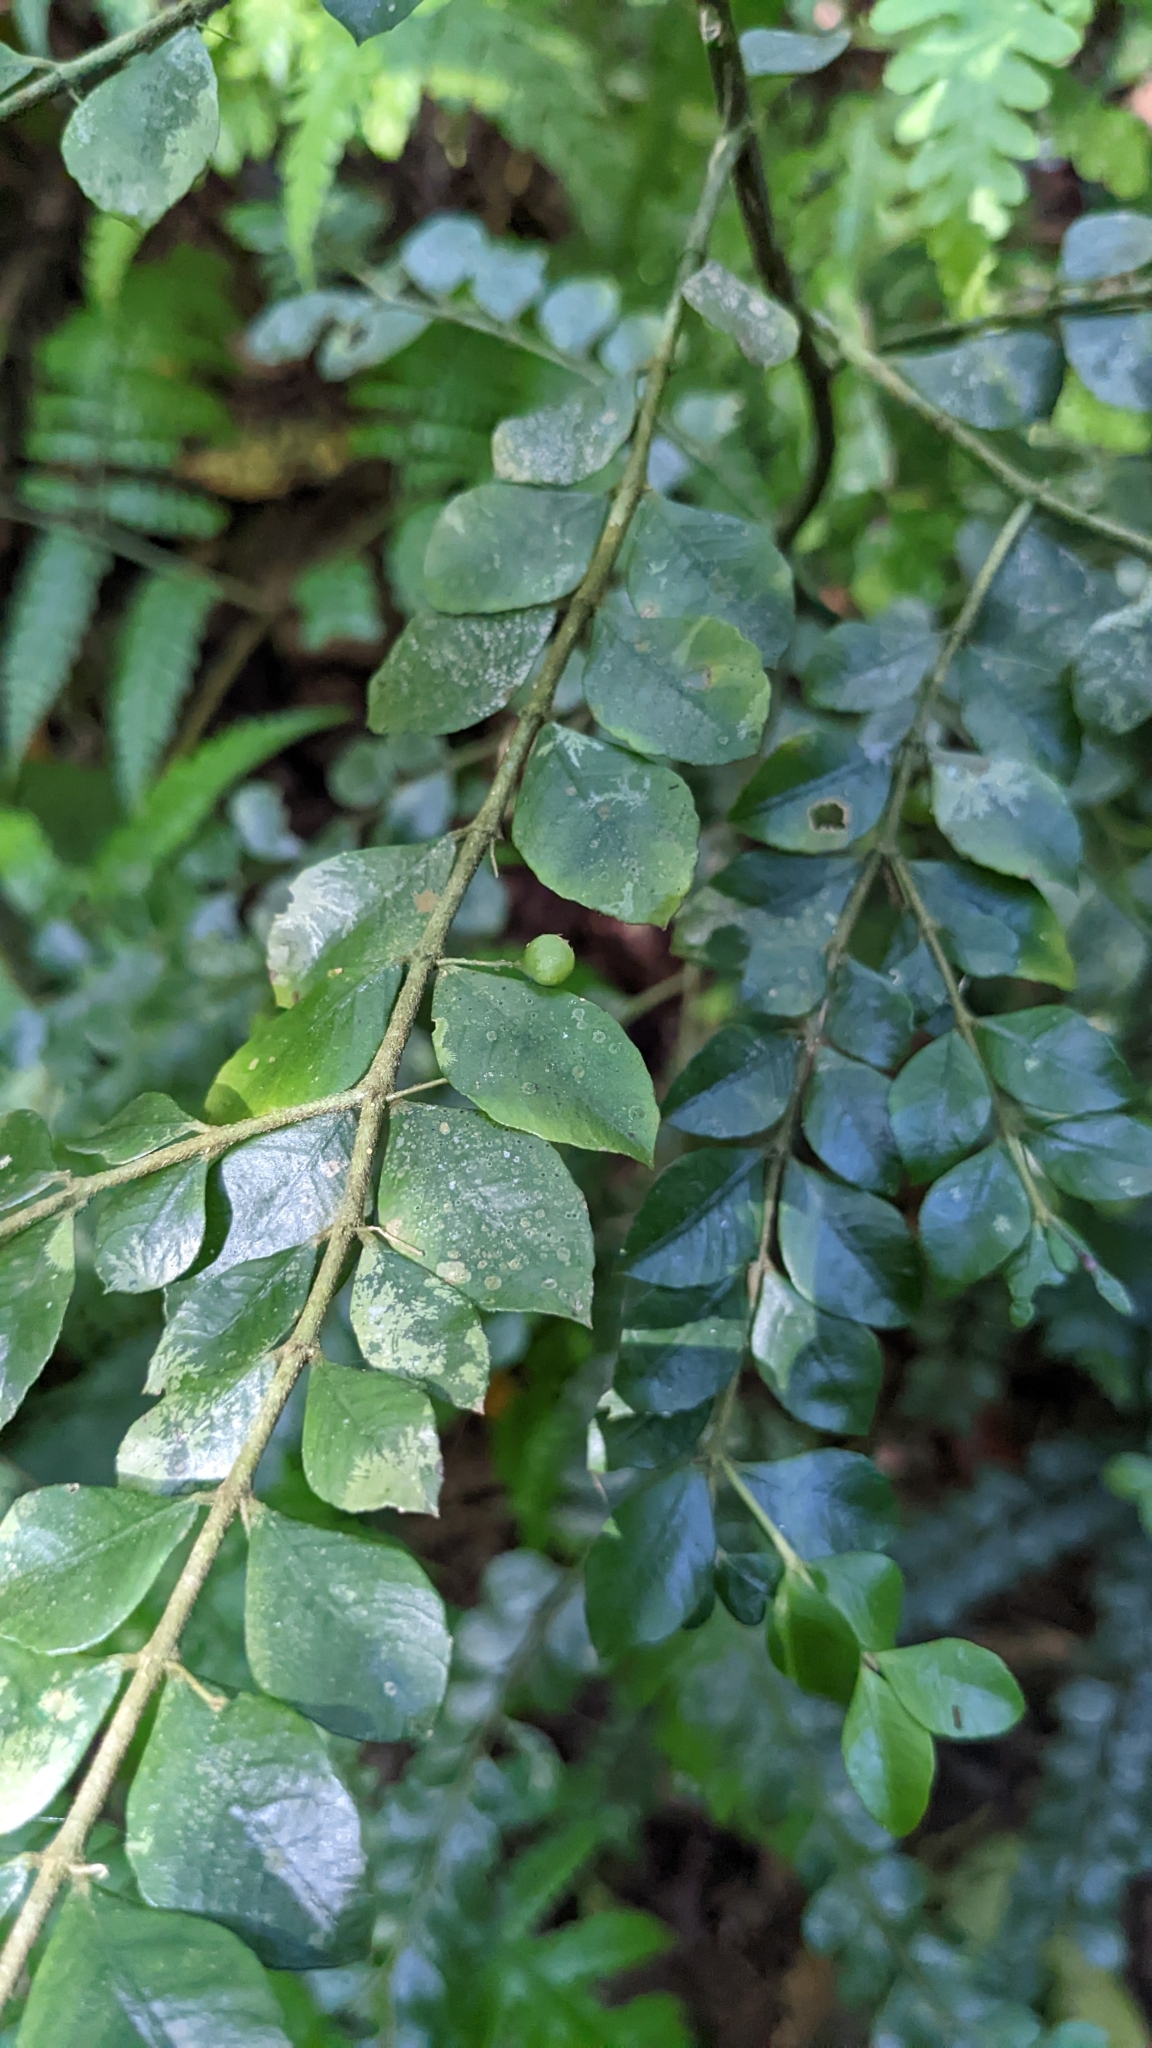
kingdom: Plantae
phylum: Tracheophyta
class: Magnoliopsida
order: Gentianales
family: Rubiaceae
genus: Lasianthus
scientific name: Lasianthus biflorus
